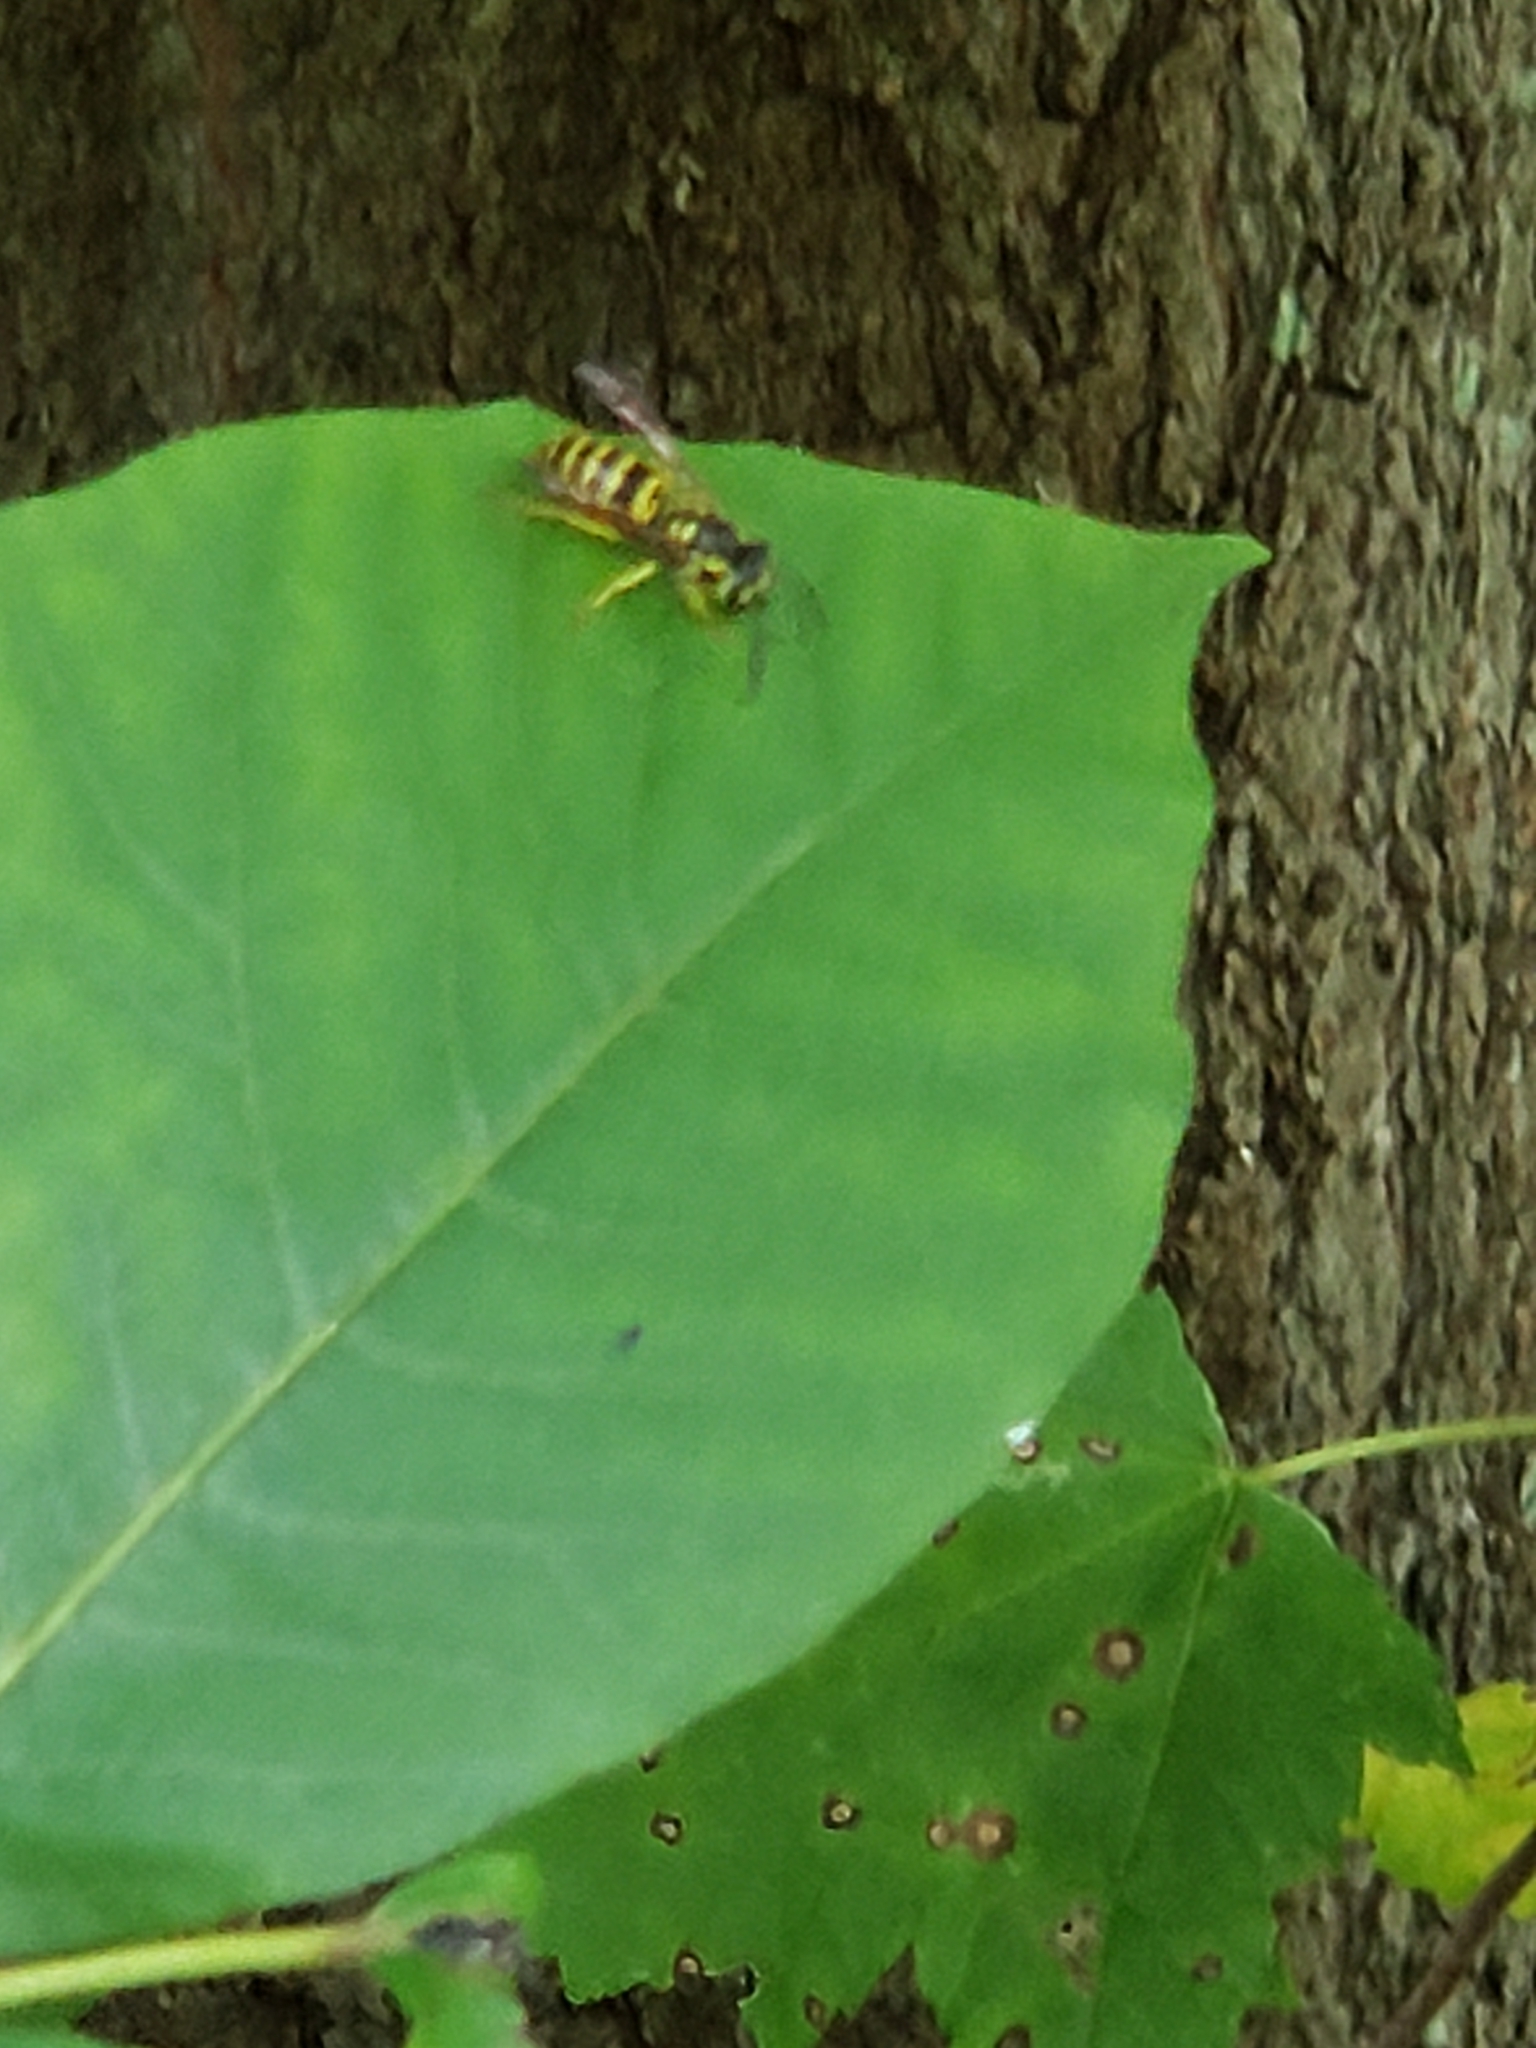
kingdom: Animalia
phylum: Arthropoda
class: Insecta
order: Hymenoptera
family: Vespidae
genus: Vespula
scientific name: Vespula maculifrons
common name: Eastern yellowjacket
